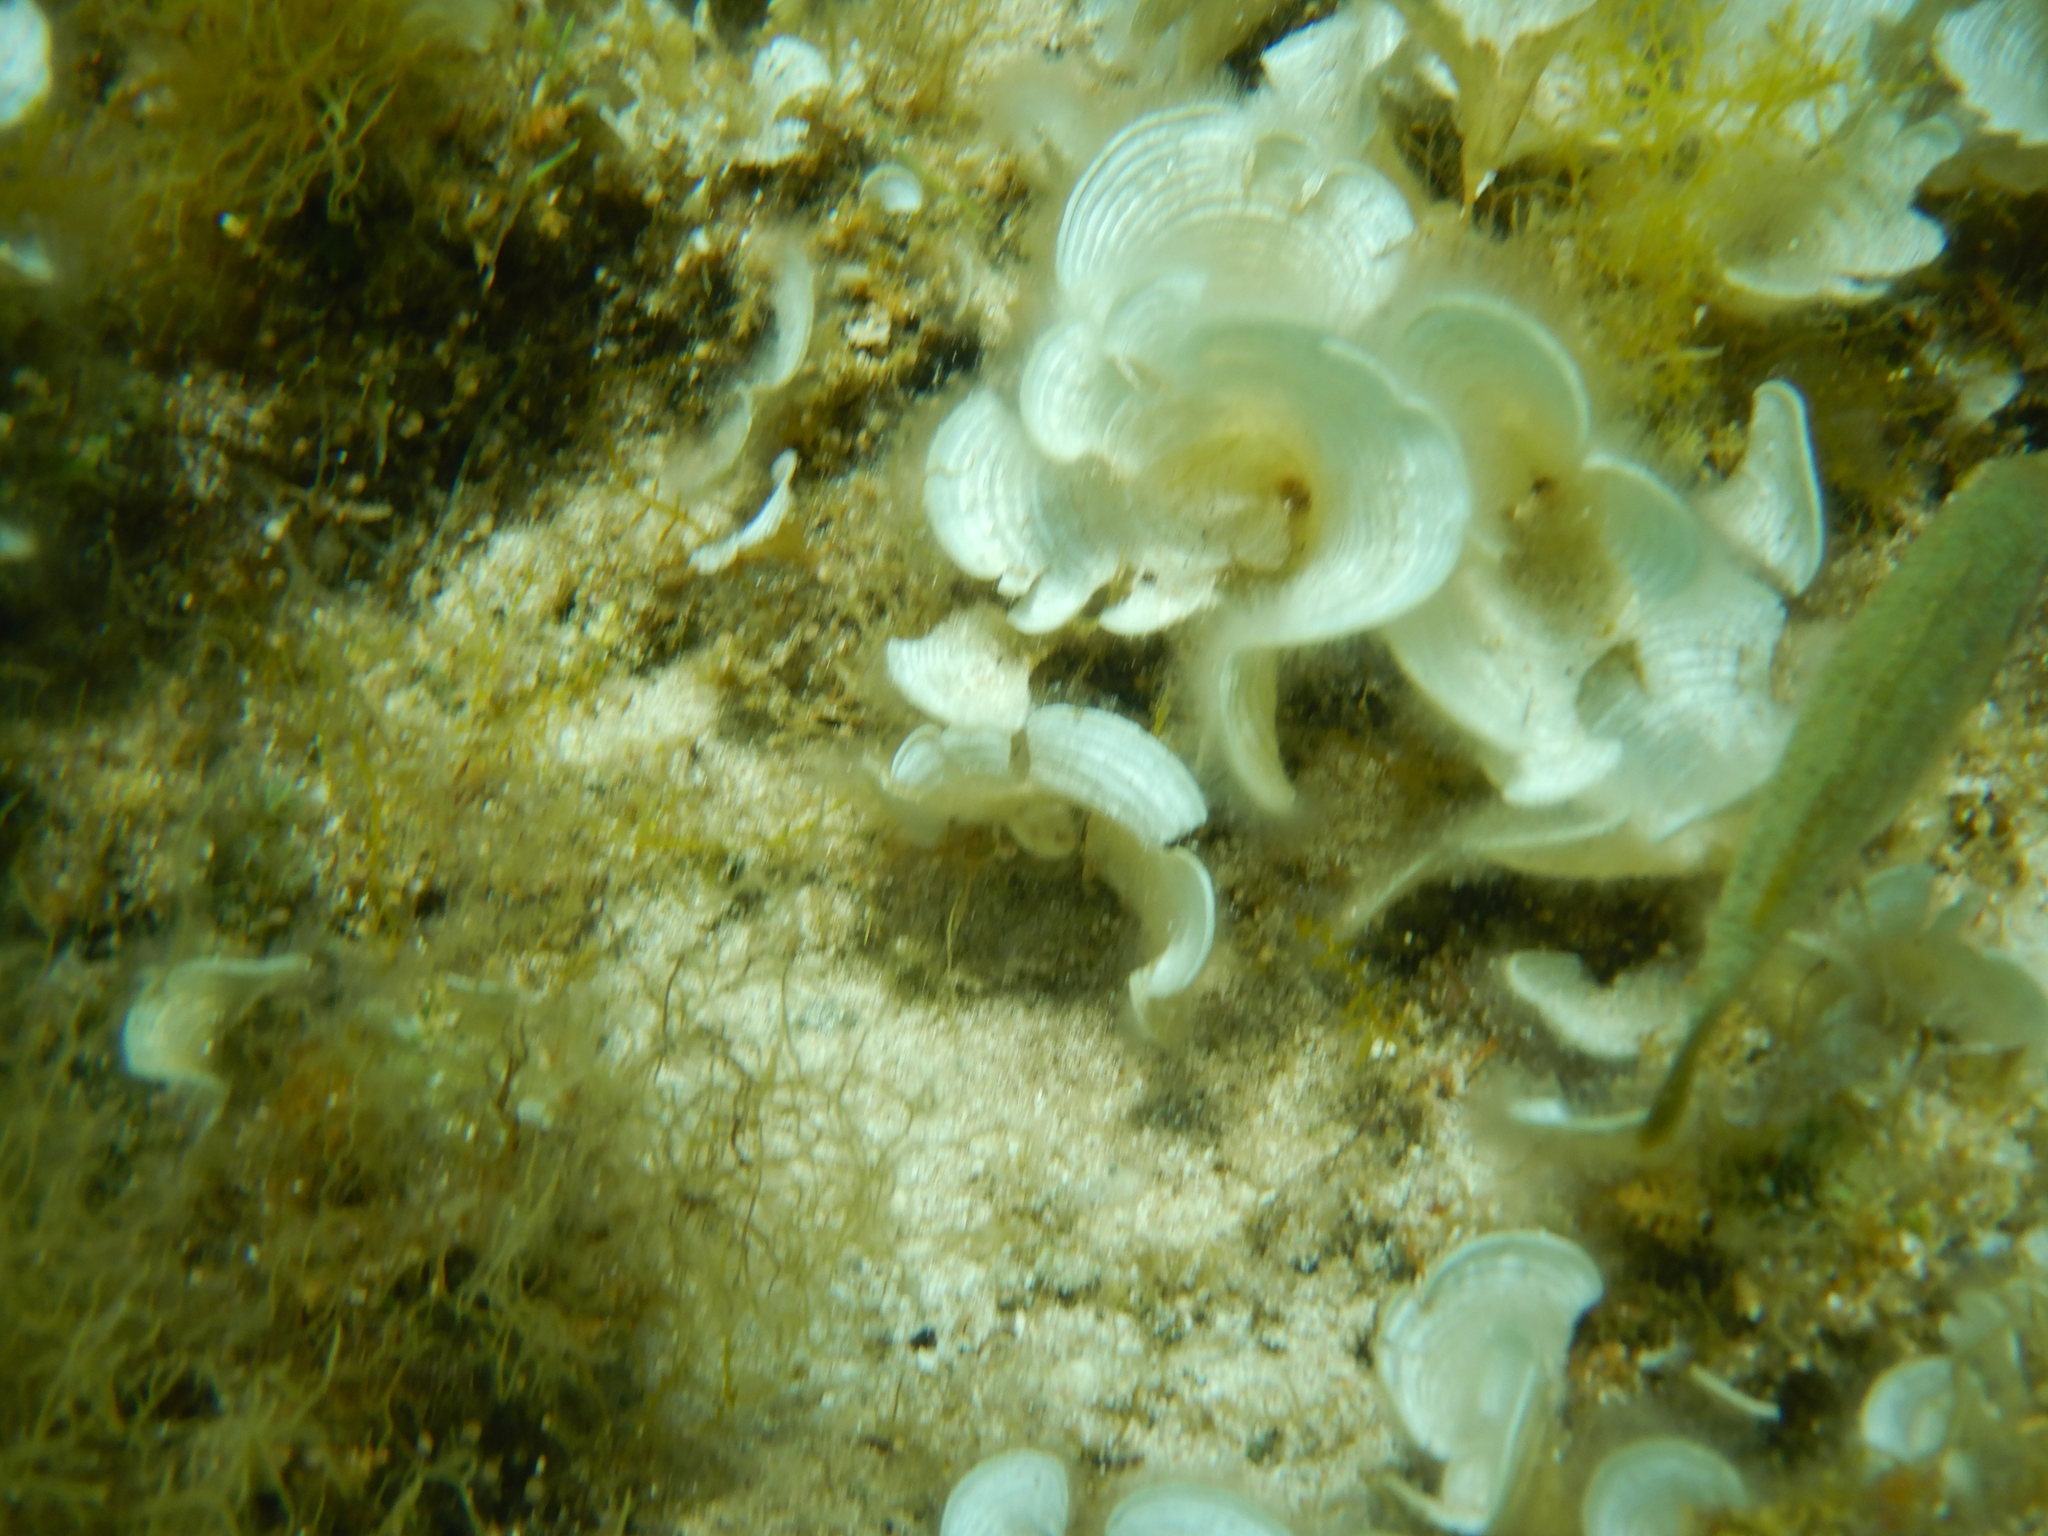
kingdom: Chromista
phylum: Ochrophyta
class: Phaeophyceae
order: Dictyotales
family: Dictyotaceae
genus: Padina
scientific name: Padina pavonica
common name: Turkey feather alga
